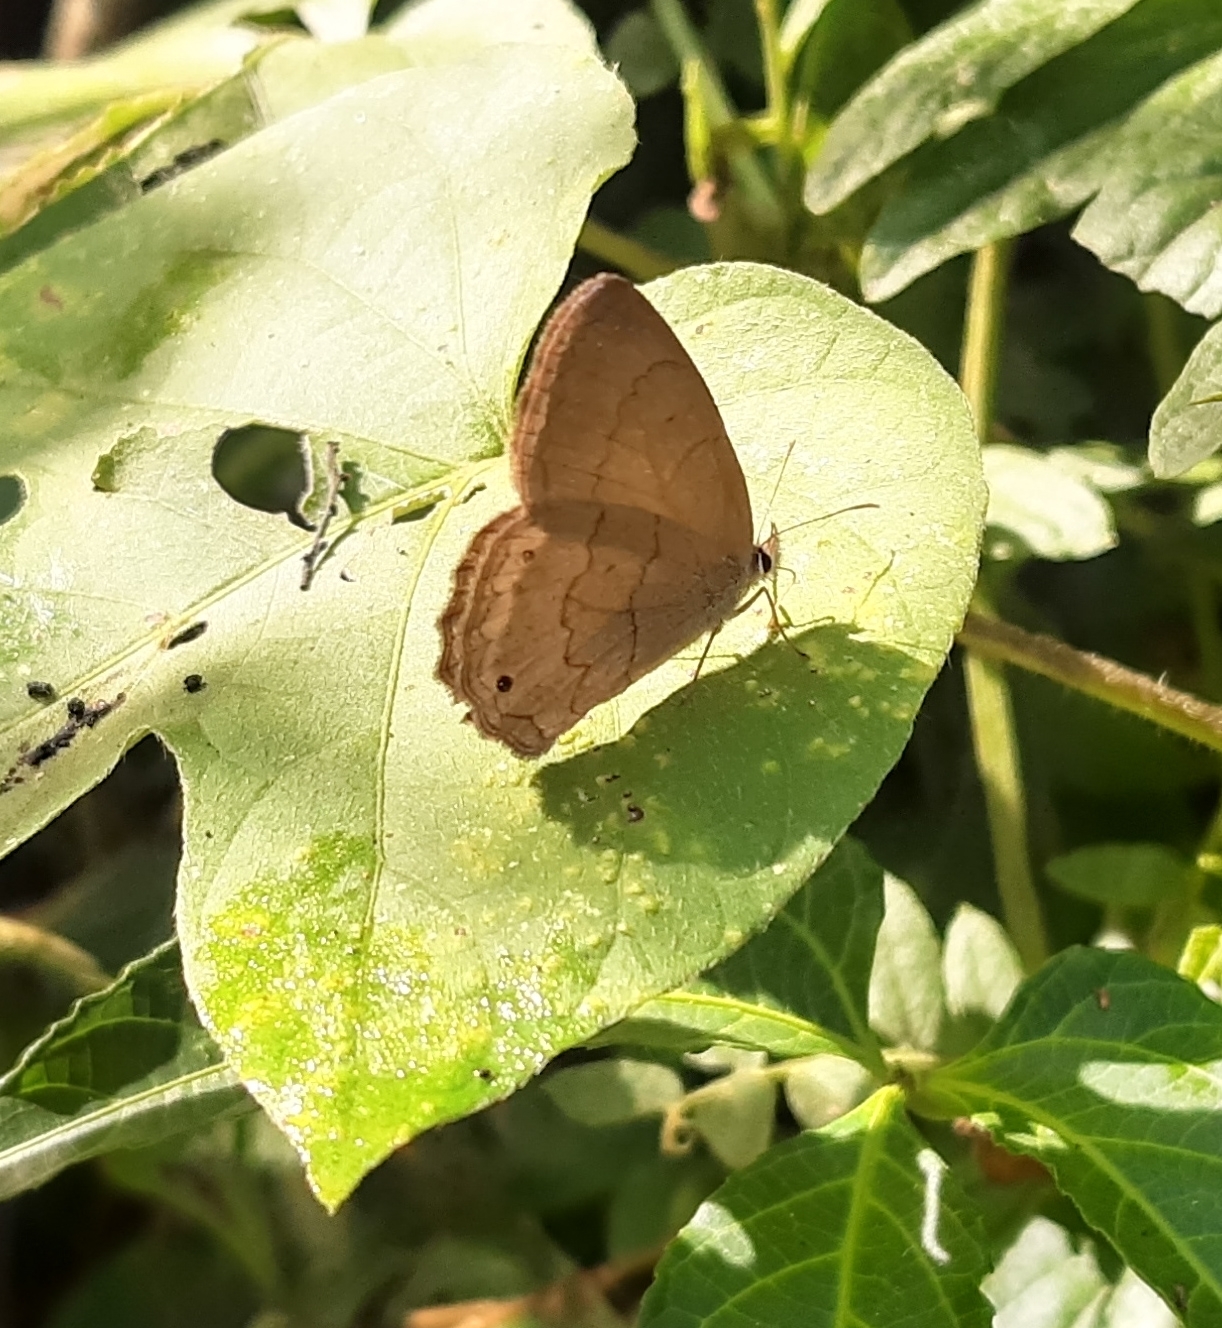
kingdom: Animalia
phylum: Arthropoda
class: Insecta
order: Lepidoptera
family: Nymphalidae
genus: Euptychia
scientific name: Euptychia Cissia eous
